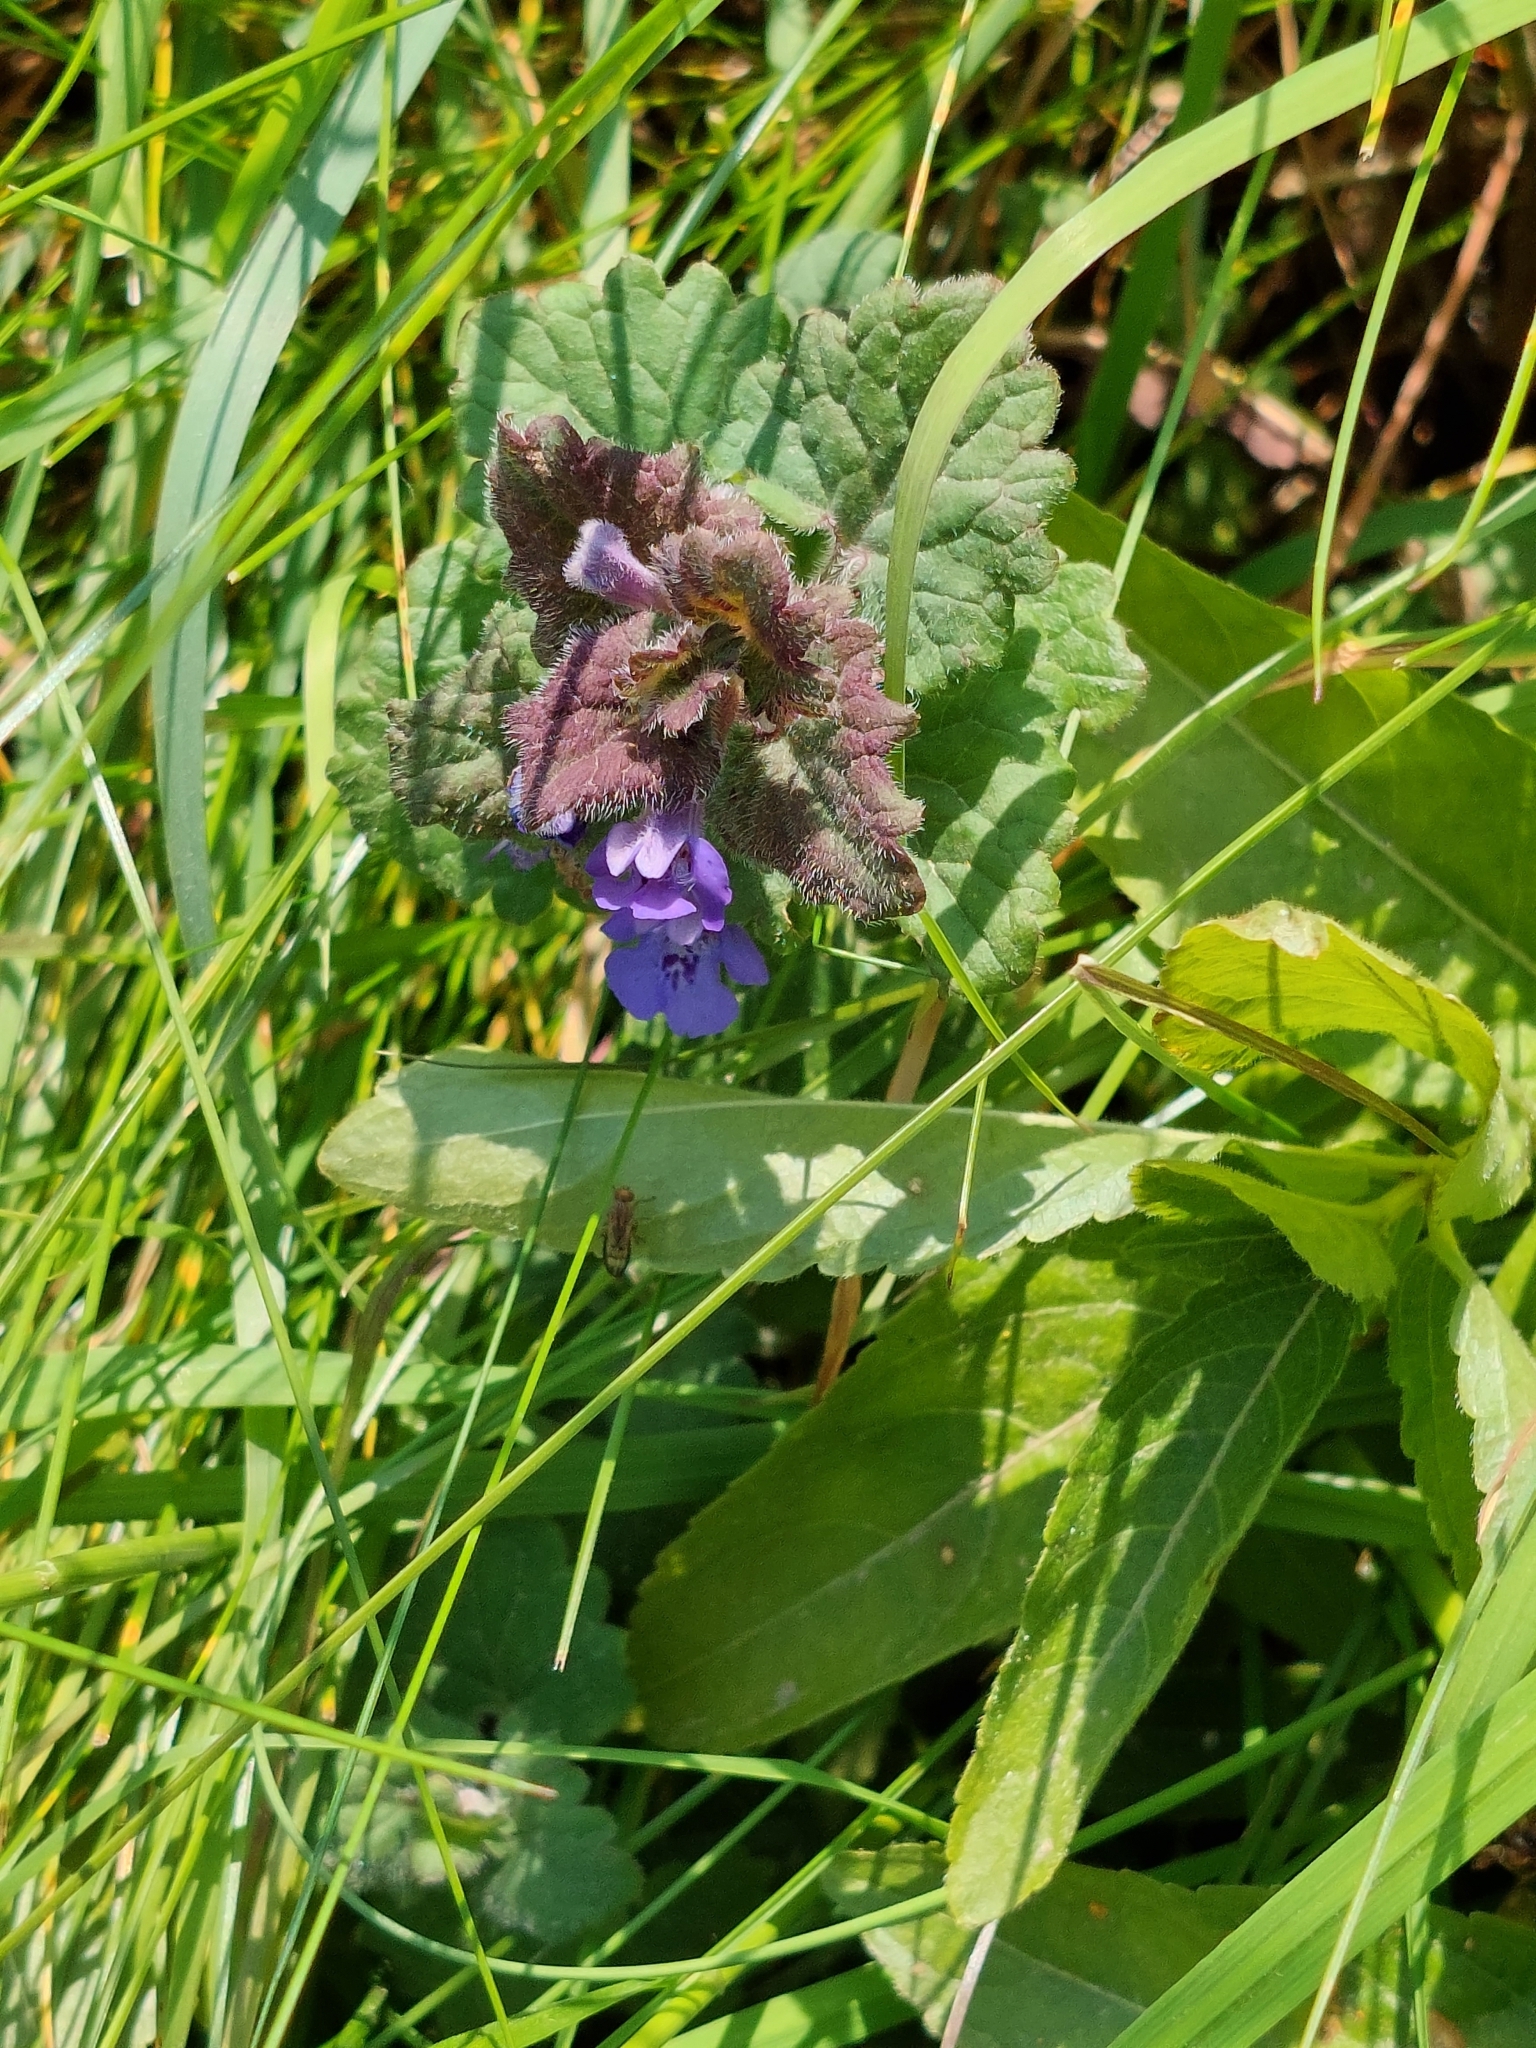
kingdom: Plantae
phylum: Tracheophyta
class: Magnoliopsida
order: Lamiales
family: Lamiaceae
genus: Glechoma
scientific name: Glechoma hederacea
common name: Ground ivy
